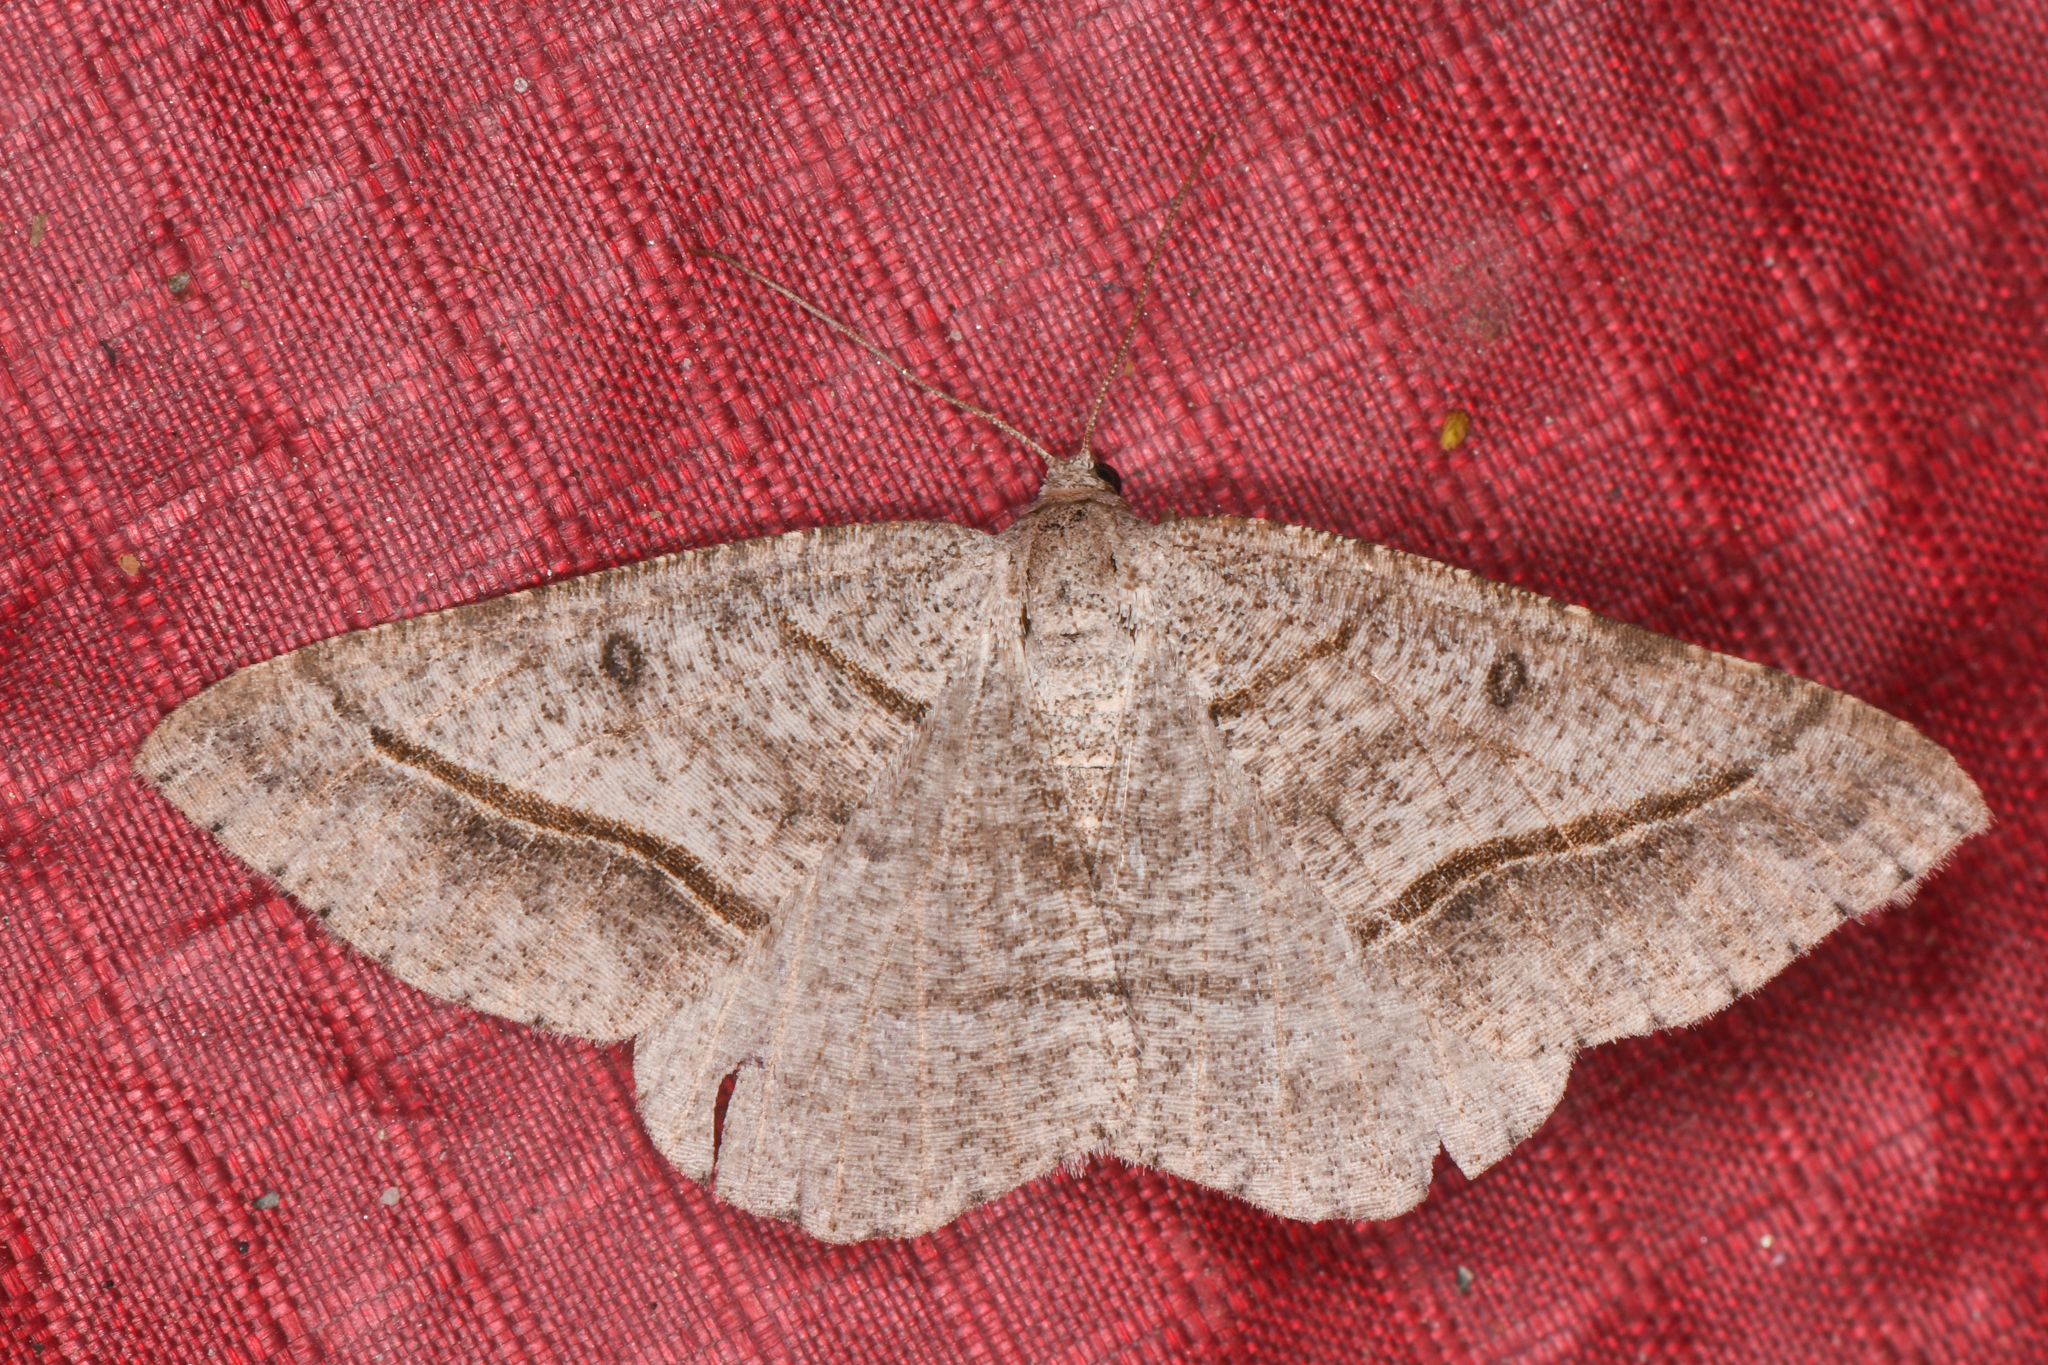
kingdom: Animalia
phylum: Arthropoda
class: Insecta
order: Lepidoptera
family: Geometridae
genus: Digrammia
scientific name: Digrammia neptaria
